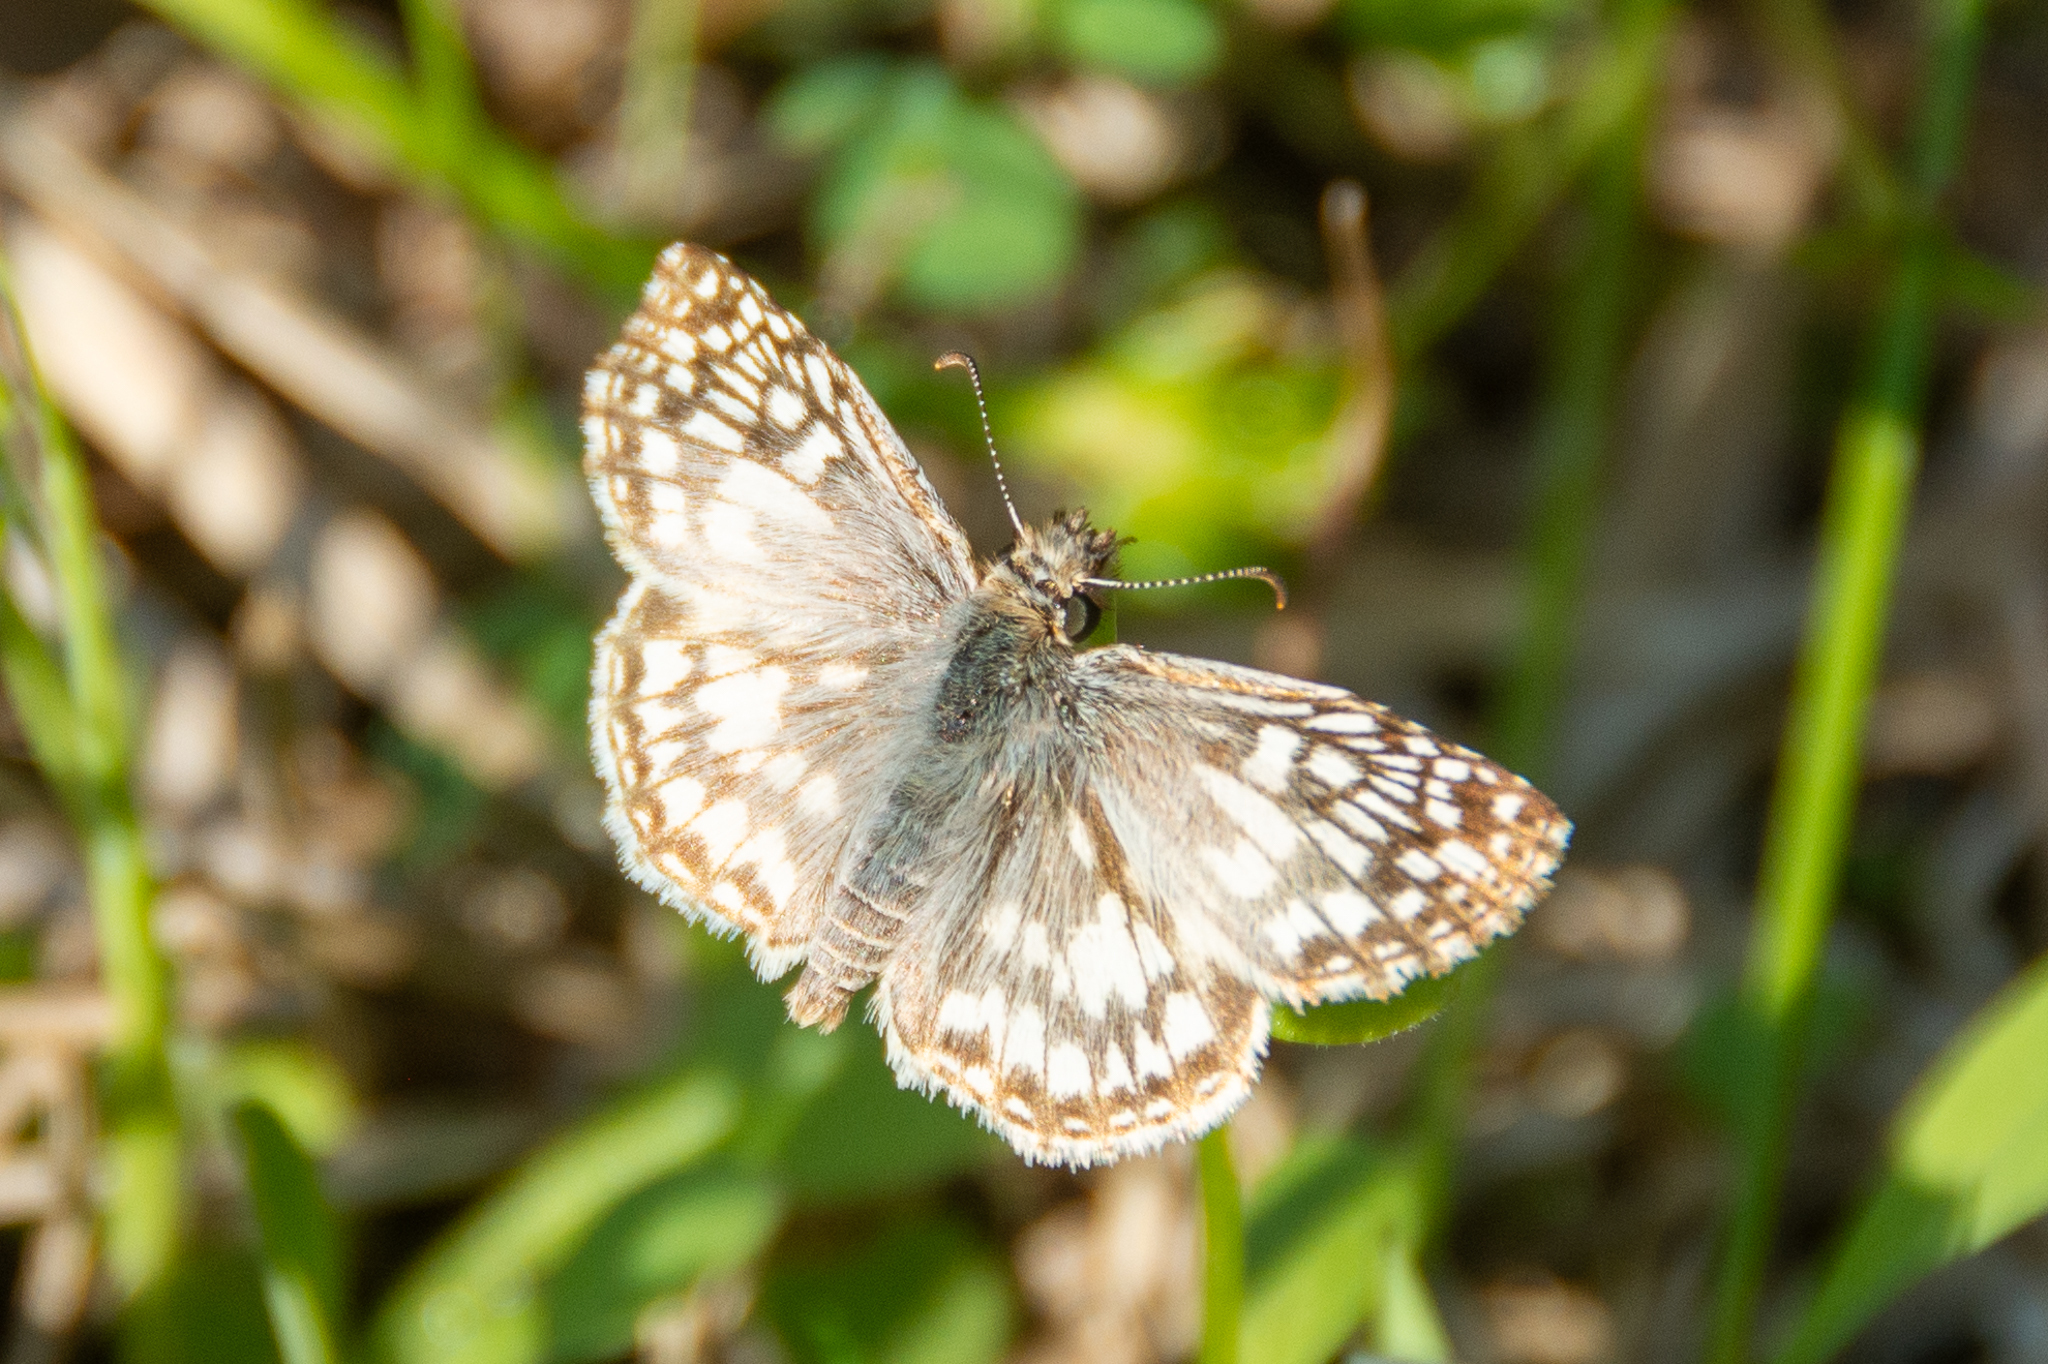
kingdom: Animalia
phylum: Arthropoda
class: Insecta
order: Lepidoptera
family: Hesperiidae
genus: Pyrgus
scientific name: Pyrgus oileus
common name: Tropical checkered-skipper
